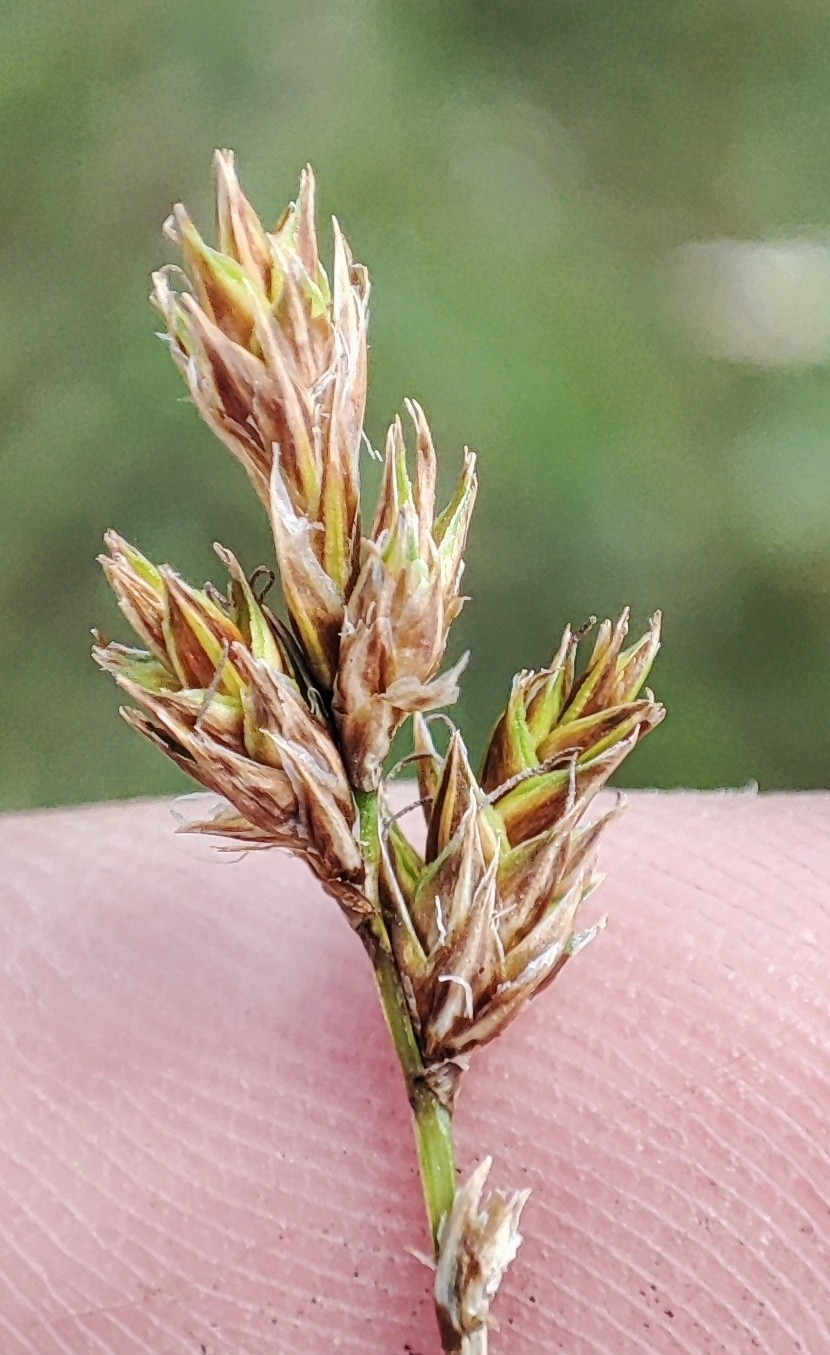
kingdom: Plantae
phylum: Tracheophyta
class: Liliopsida
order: Poales
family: Cyperaceae
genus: Carex
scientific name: Carex praecox
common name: Early sedge
